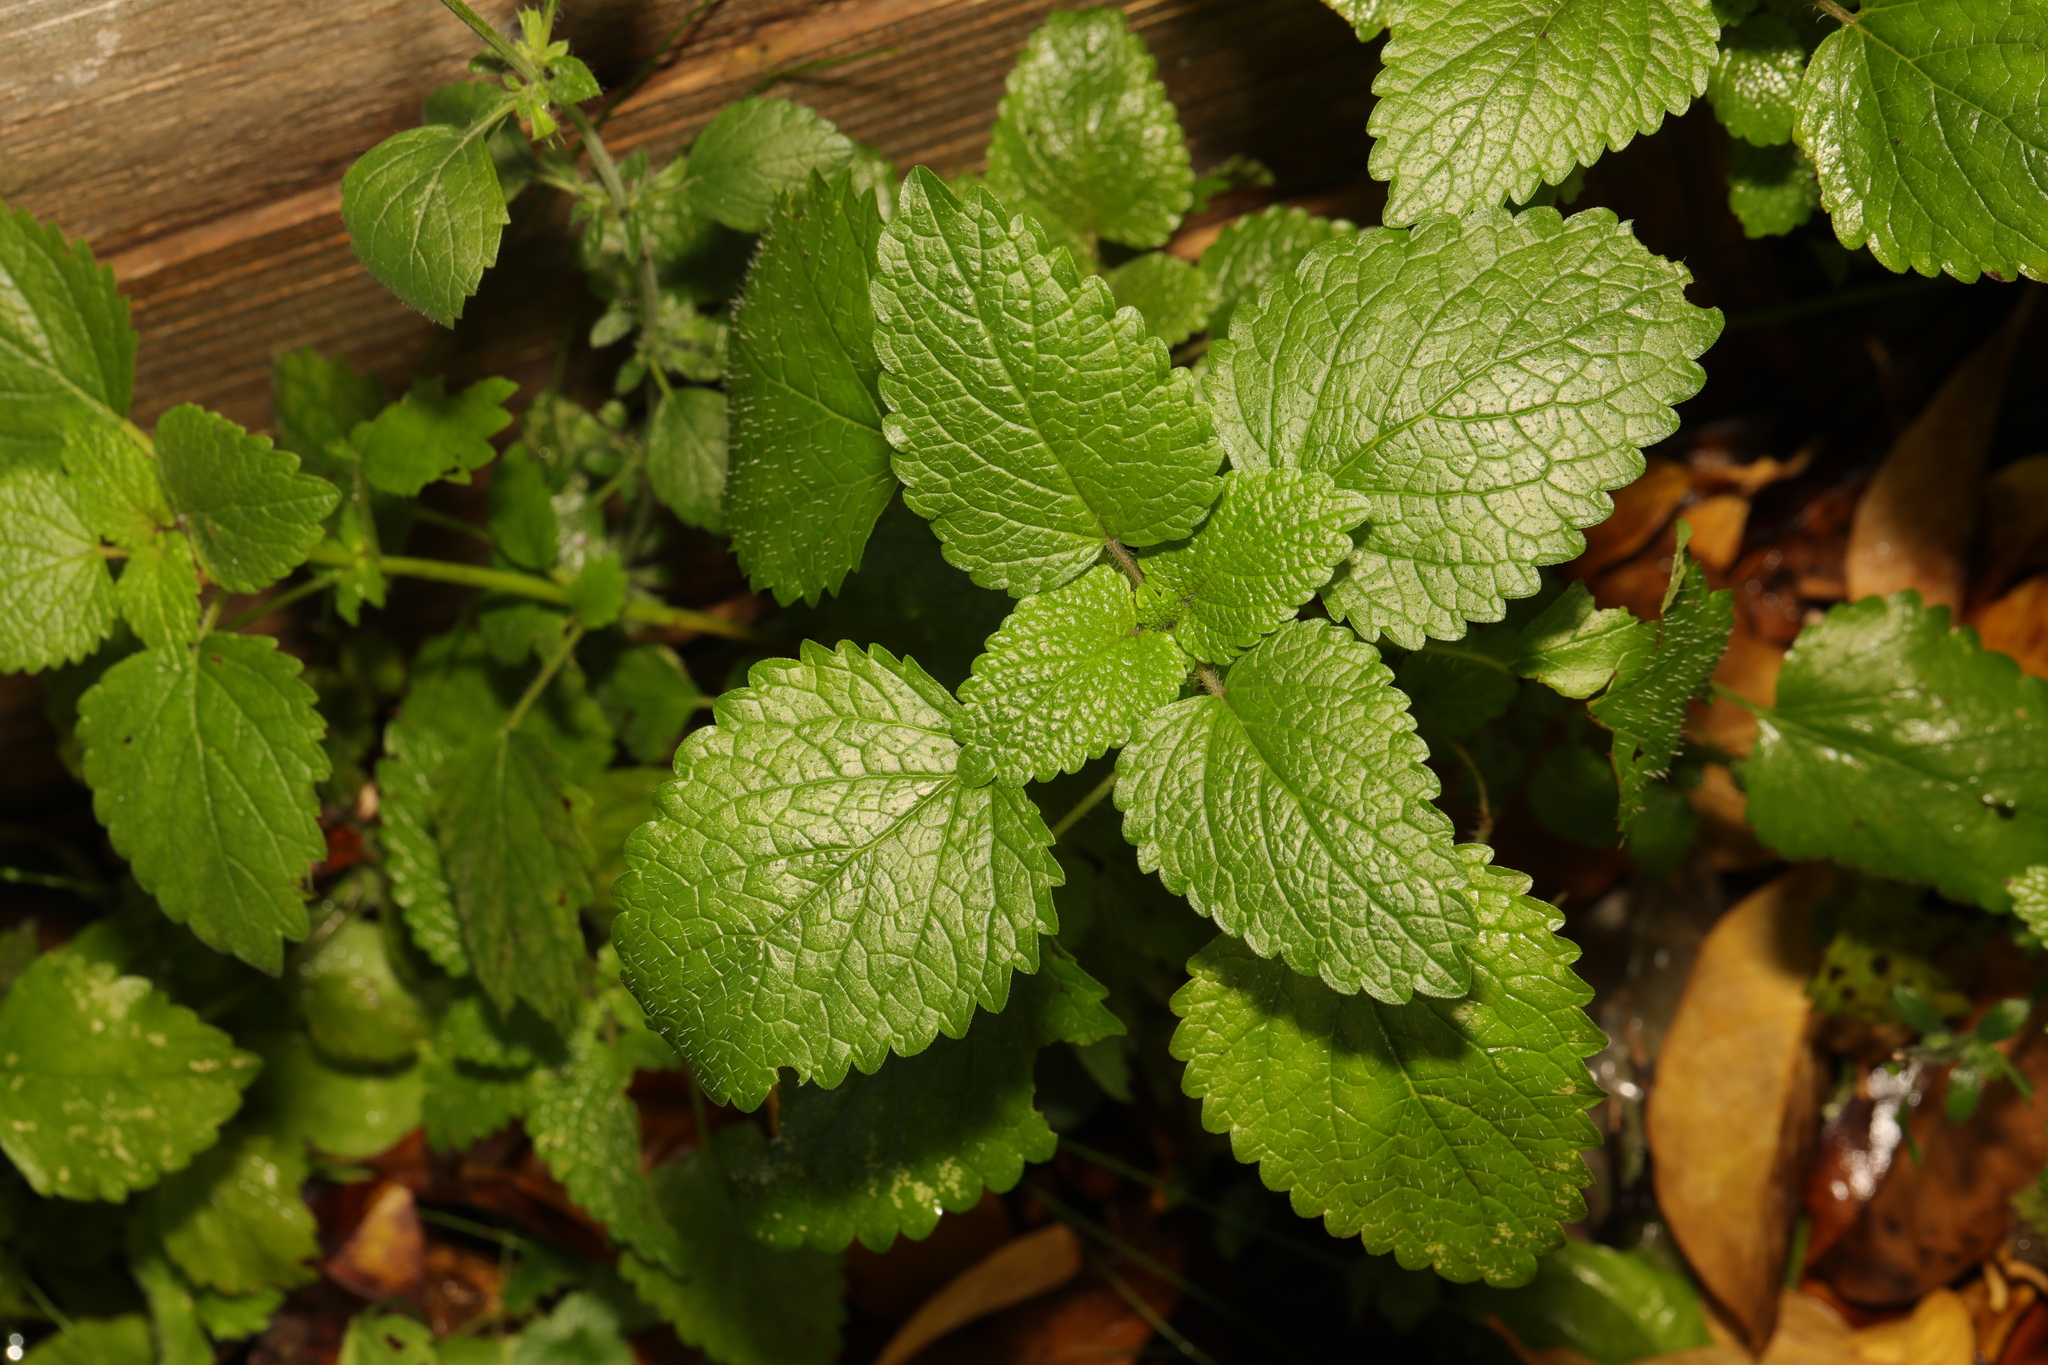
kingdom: Plantae
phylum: Tracheophyta
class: Magnoliopsida
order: Lamiales
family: Lamiaceae
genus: Melissa
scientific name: Melissa officinalis
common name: Balm
